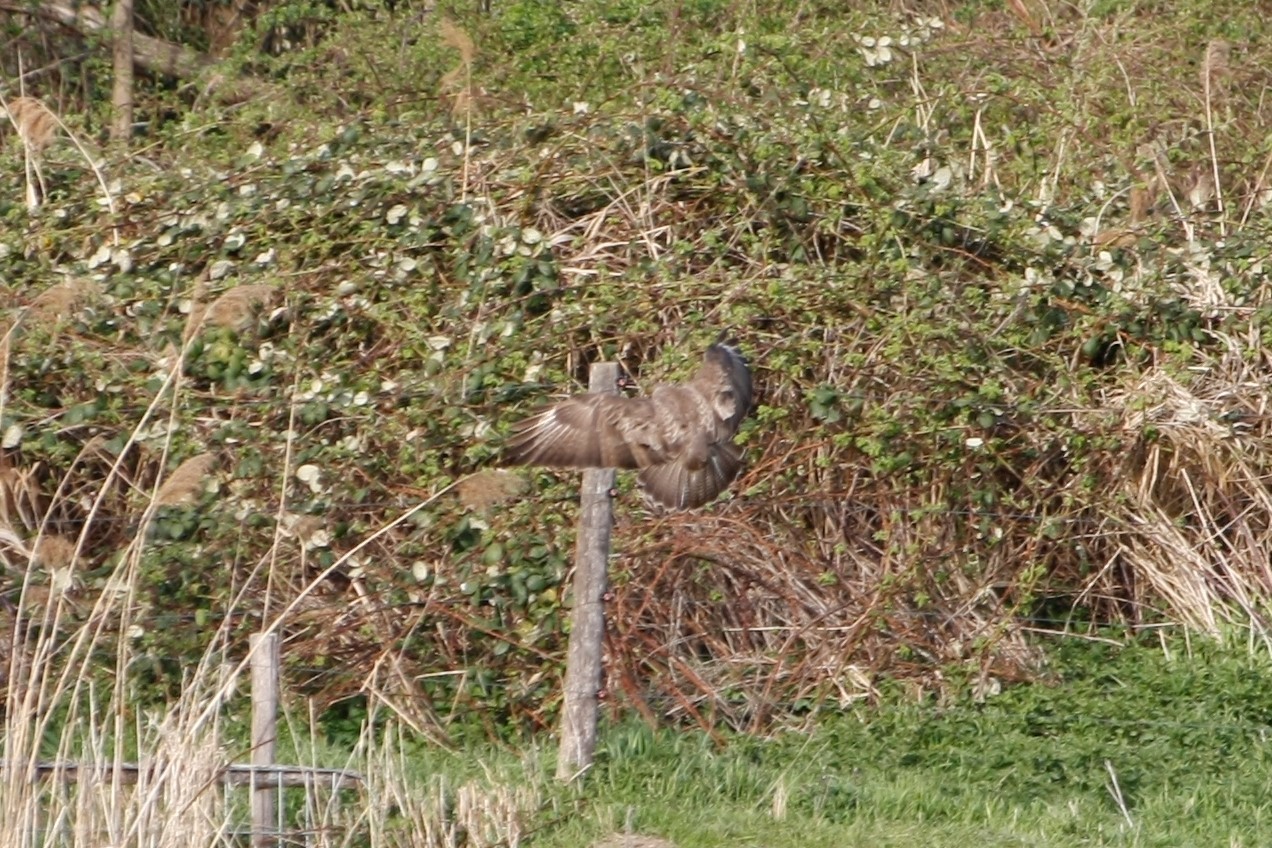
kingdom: Animalia
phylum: Chordata
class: Aves
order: Accipitriformes
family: Accipitridae
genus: Buteo
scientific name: Buteo buteo
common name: Common buzzard
